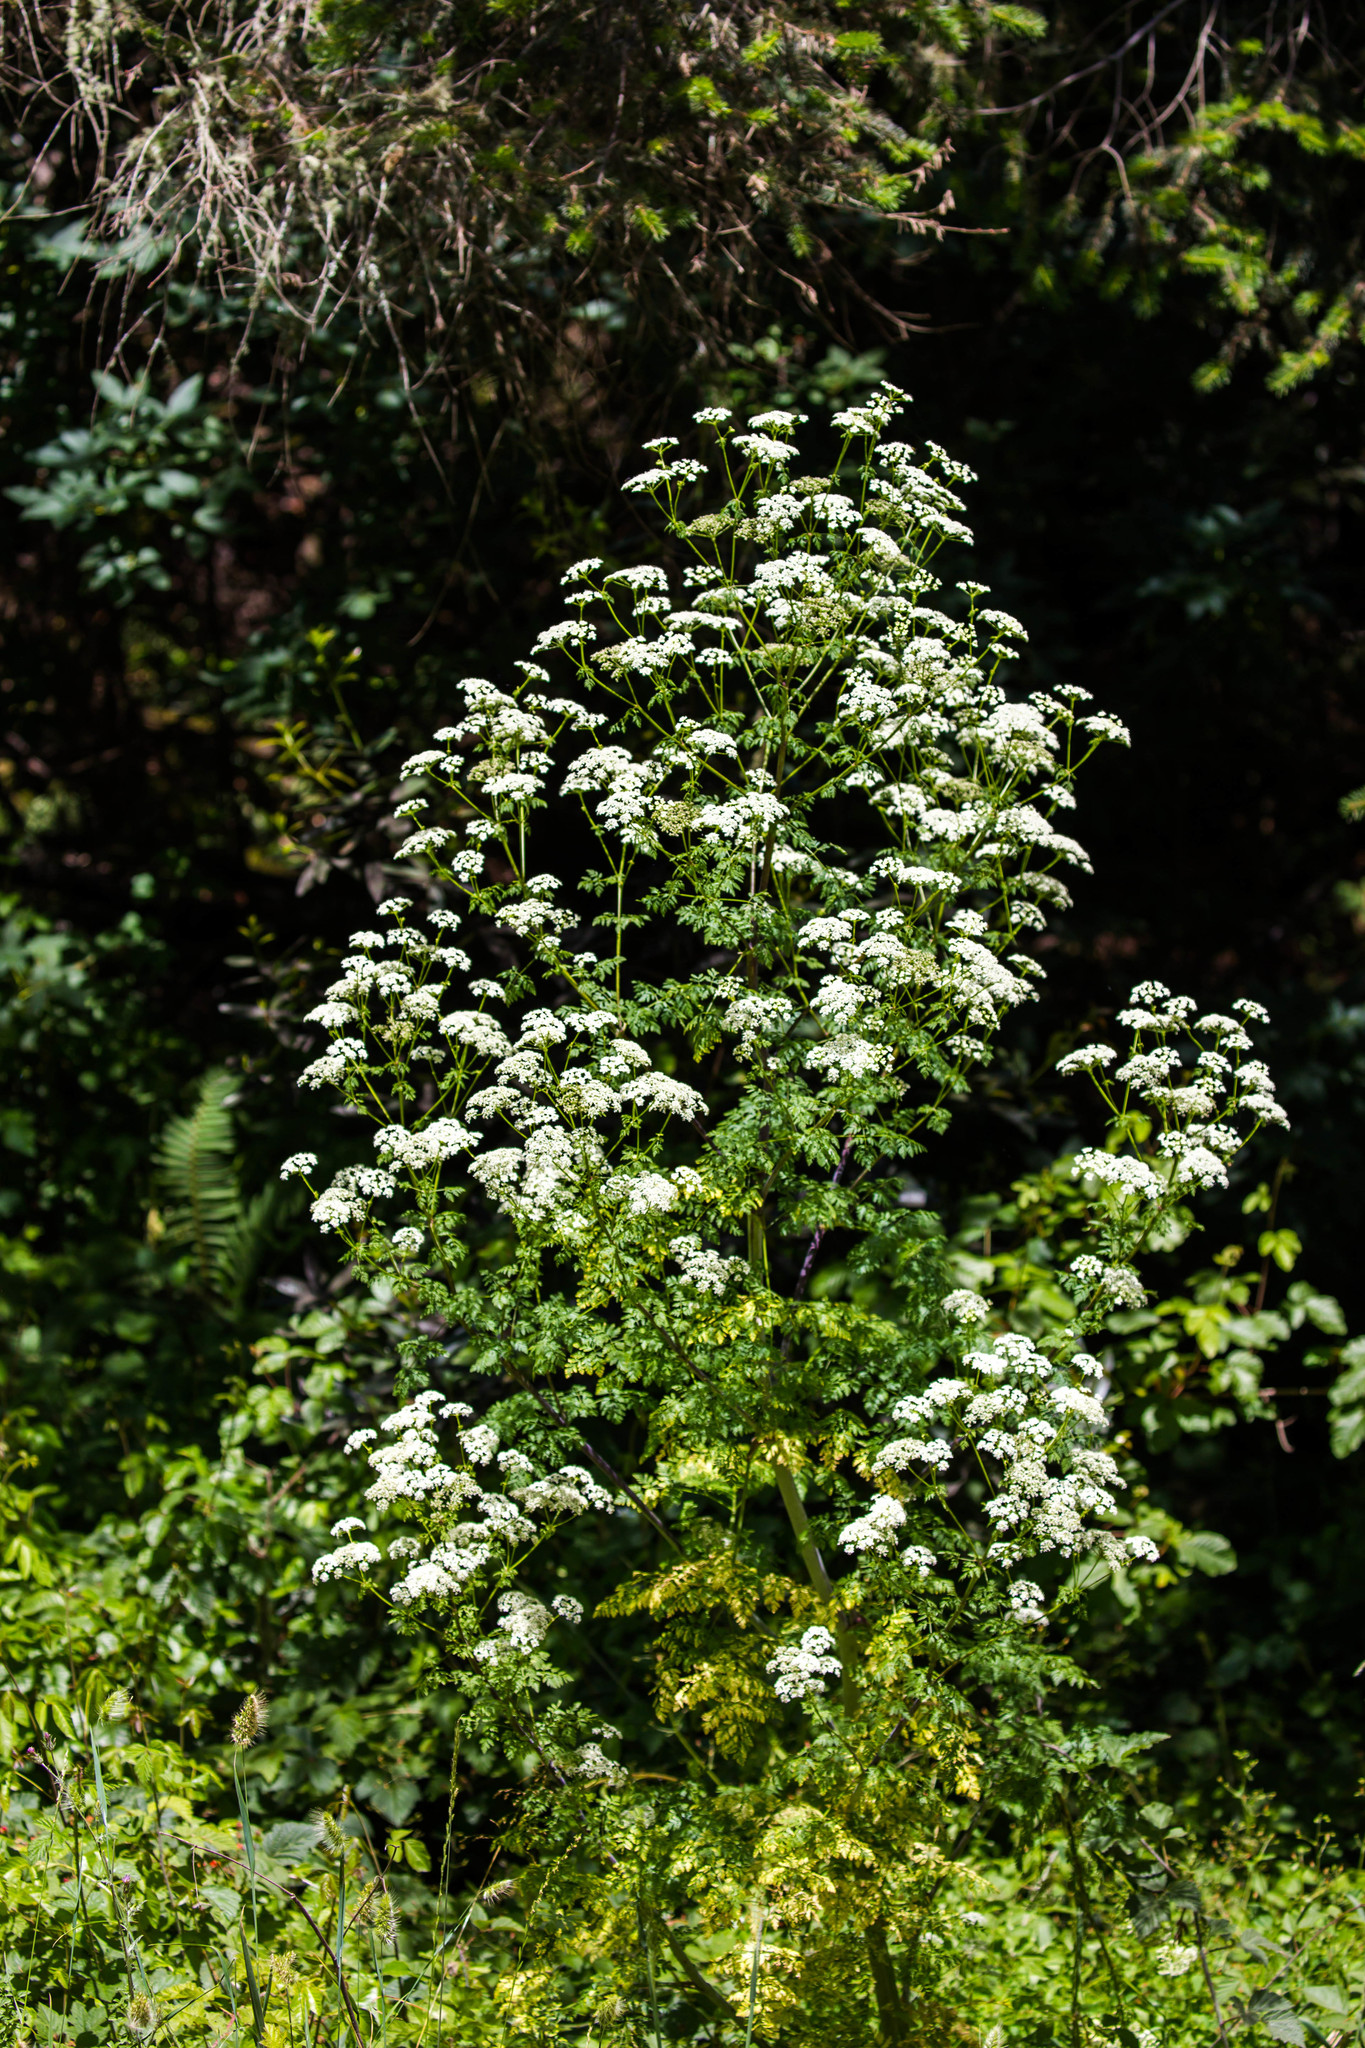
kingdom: Plantae
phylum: Tracheophyta
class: Magnoliopsida
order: Apiales
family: Apiaceae
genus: Conium
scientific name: Conium maculatum
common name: Hemlock
